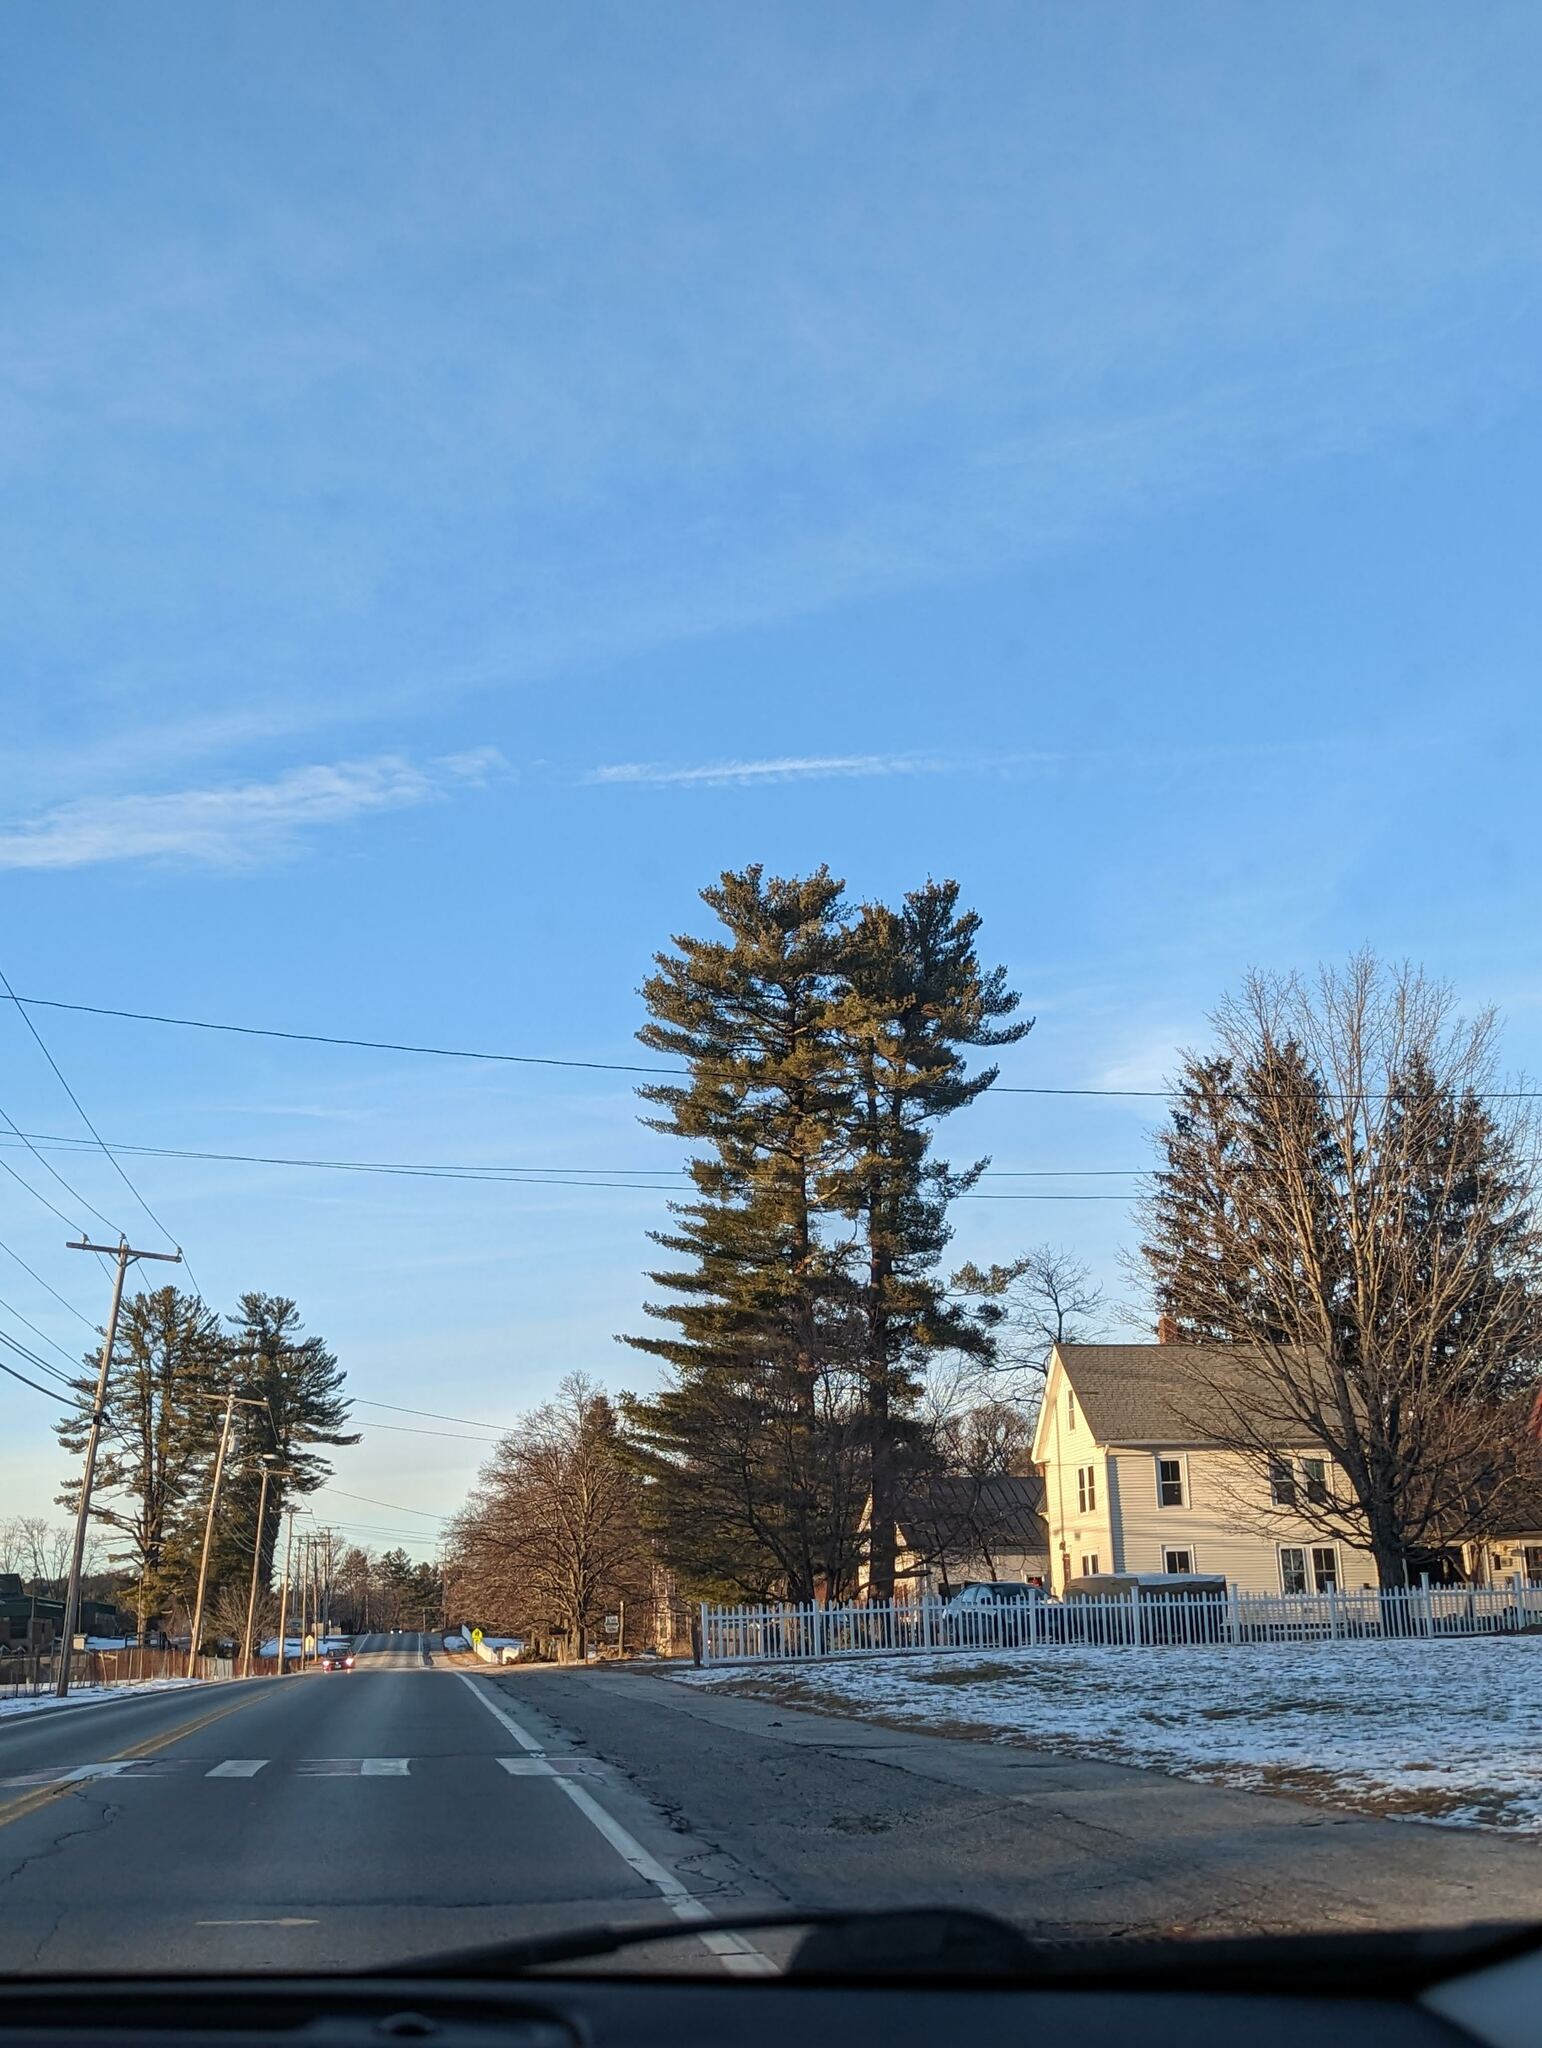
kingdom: Plantae
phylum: Tracheophyta
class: Pinopsida
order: Pinales
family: Pinaceae
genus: Pinus
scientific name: Pinus strobus
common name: Weymouth pine
